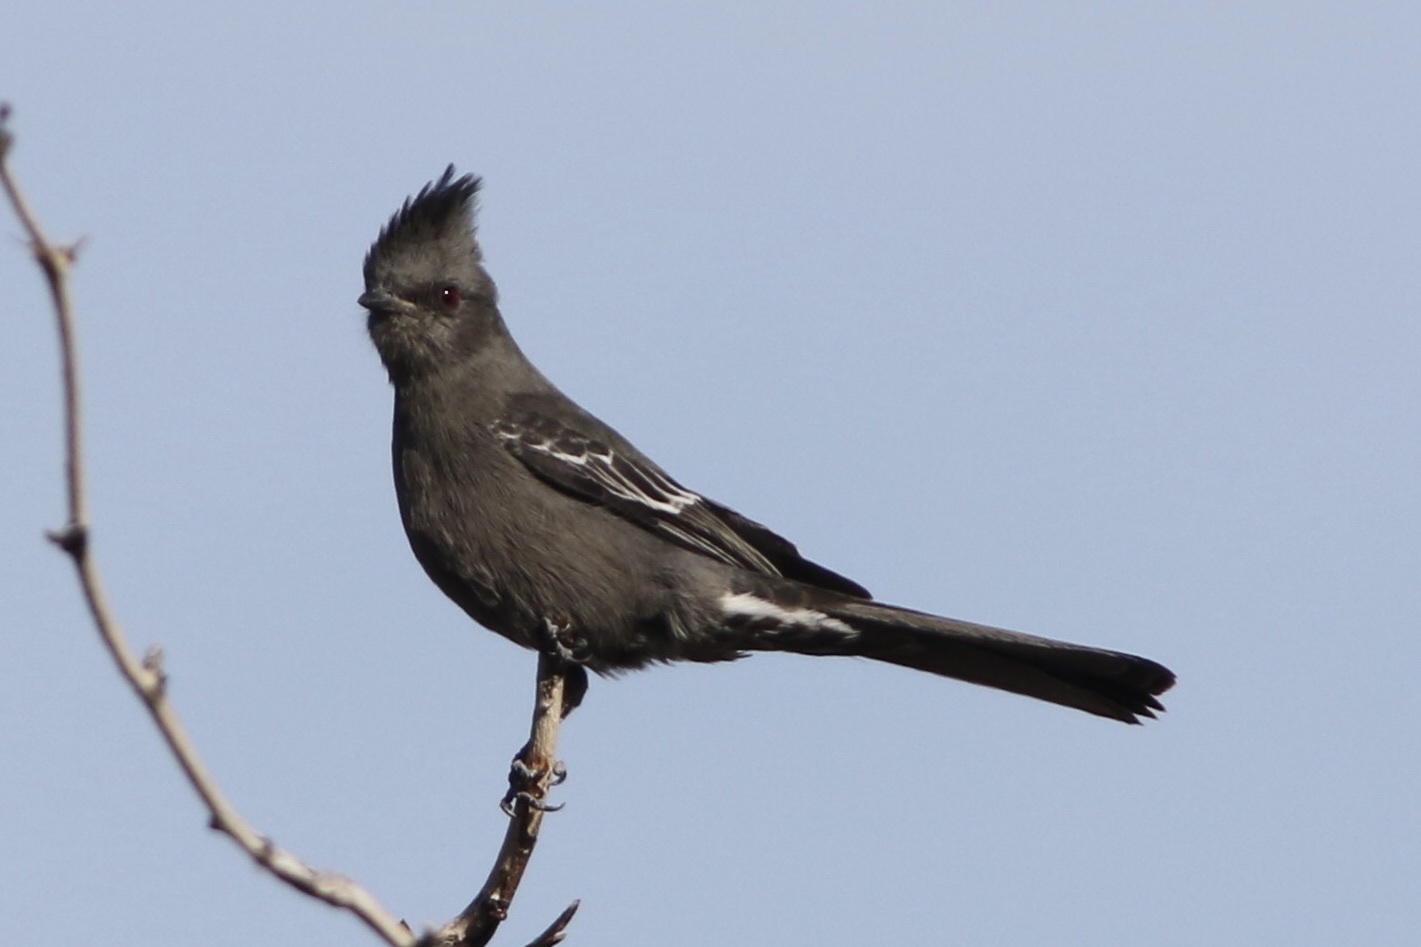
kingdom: Animalia
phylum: Chordata
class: Aves
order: Passeriformes
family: Ptilogonatidae
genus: Phainopepla
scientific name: Phainopepla nitens
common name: Phainopepla
